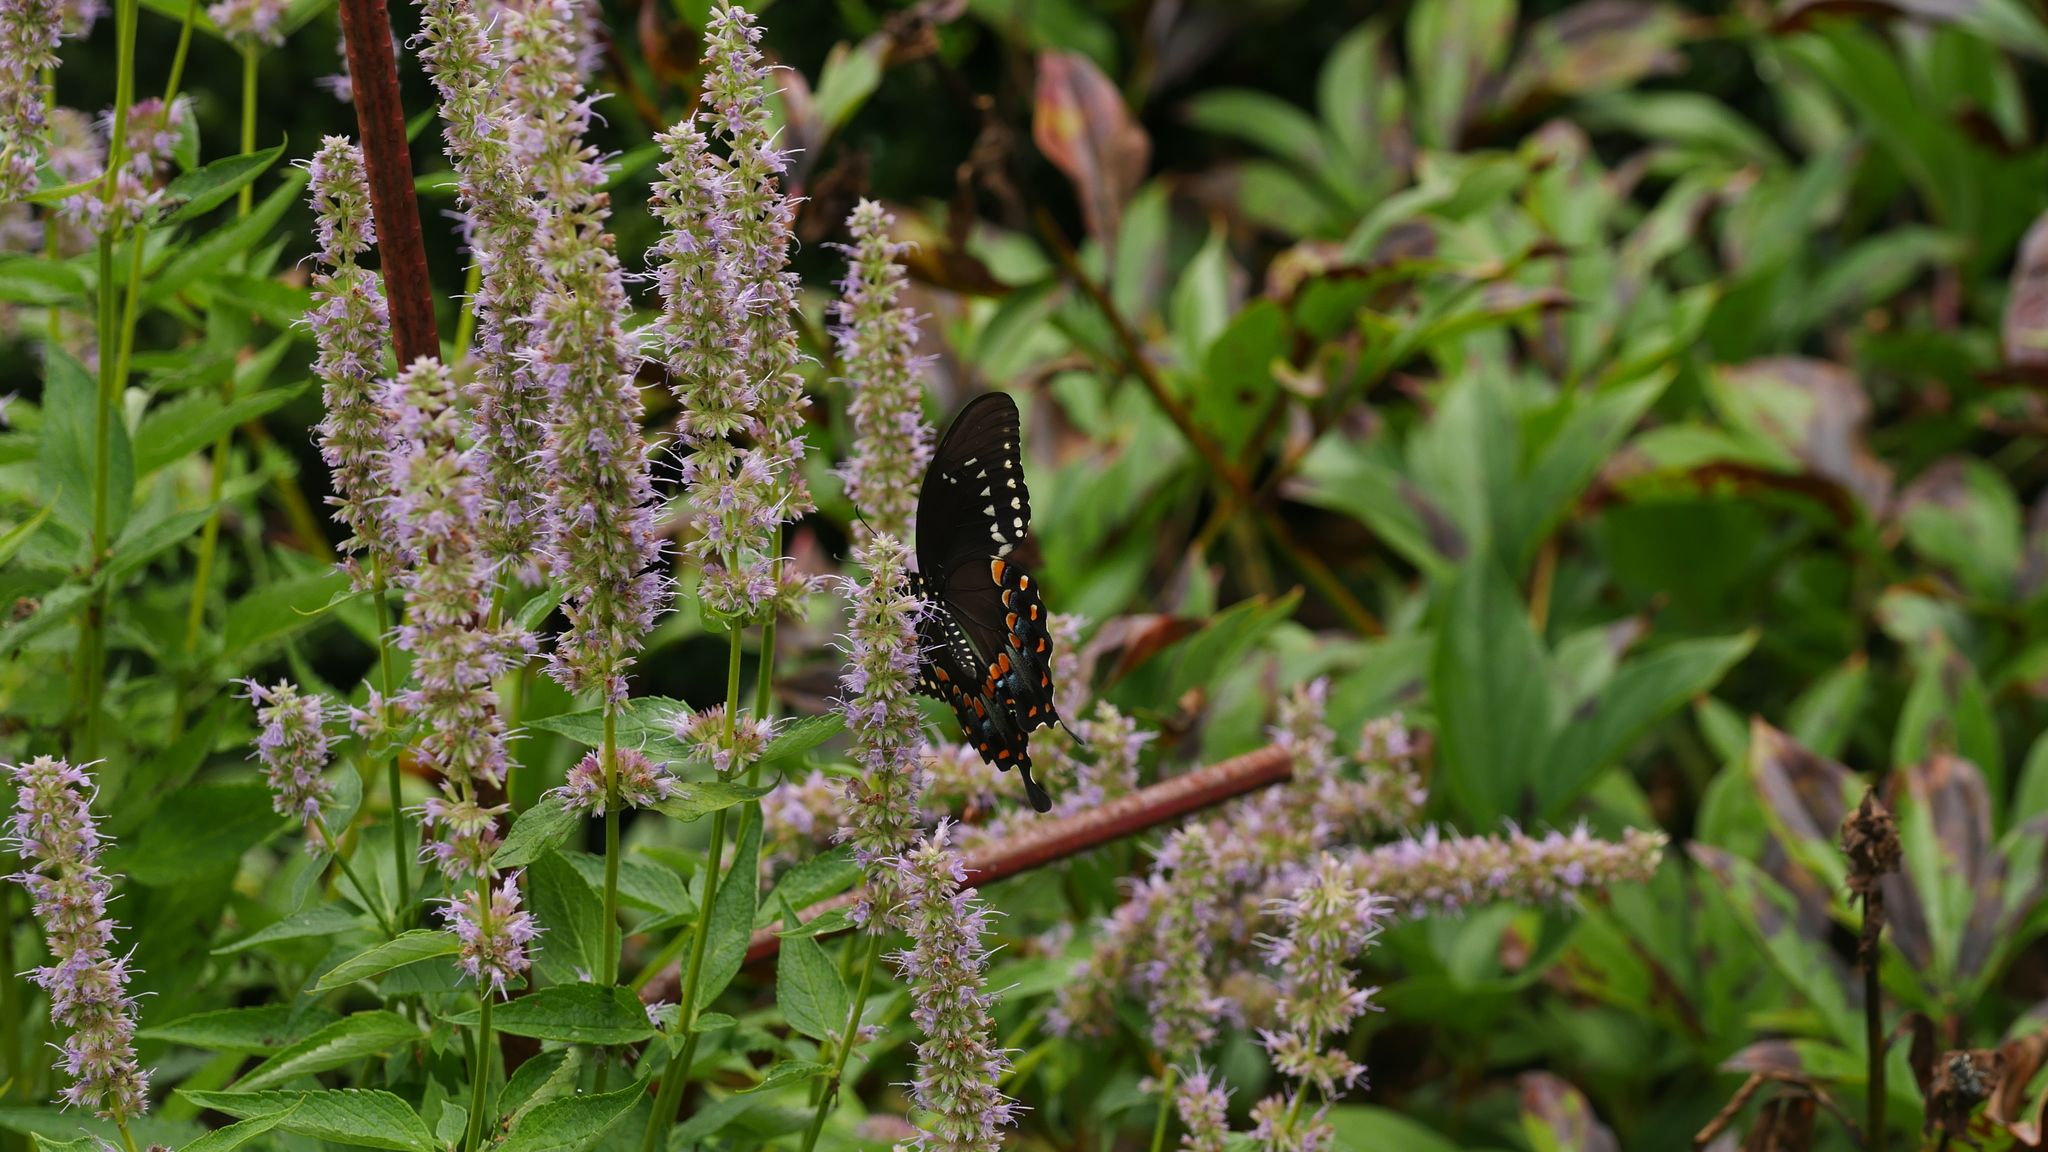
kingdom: Animalia
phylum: Arthropoda
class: Insecta
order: Lepidoptera
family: Papilionidae
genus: Papilio
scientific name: Papilio troilus
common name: Spicebush swallowtail
